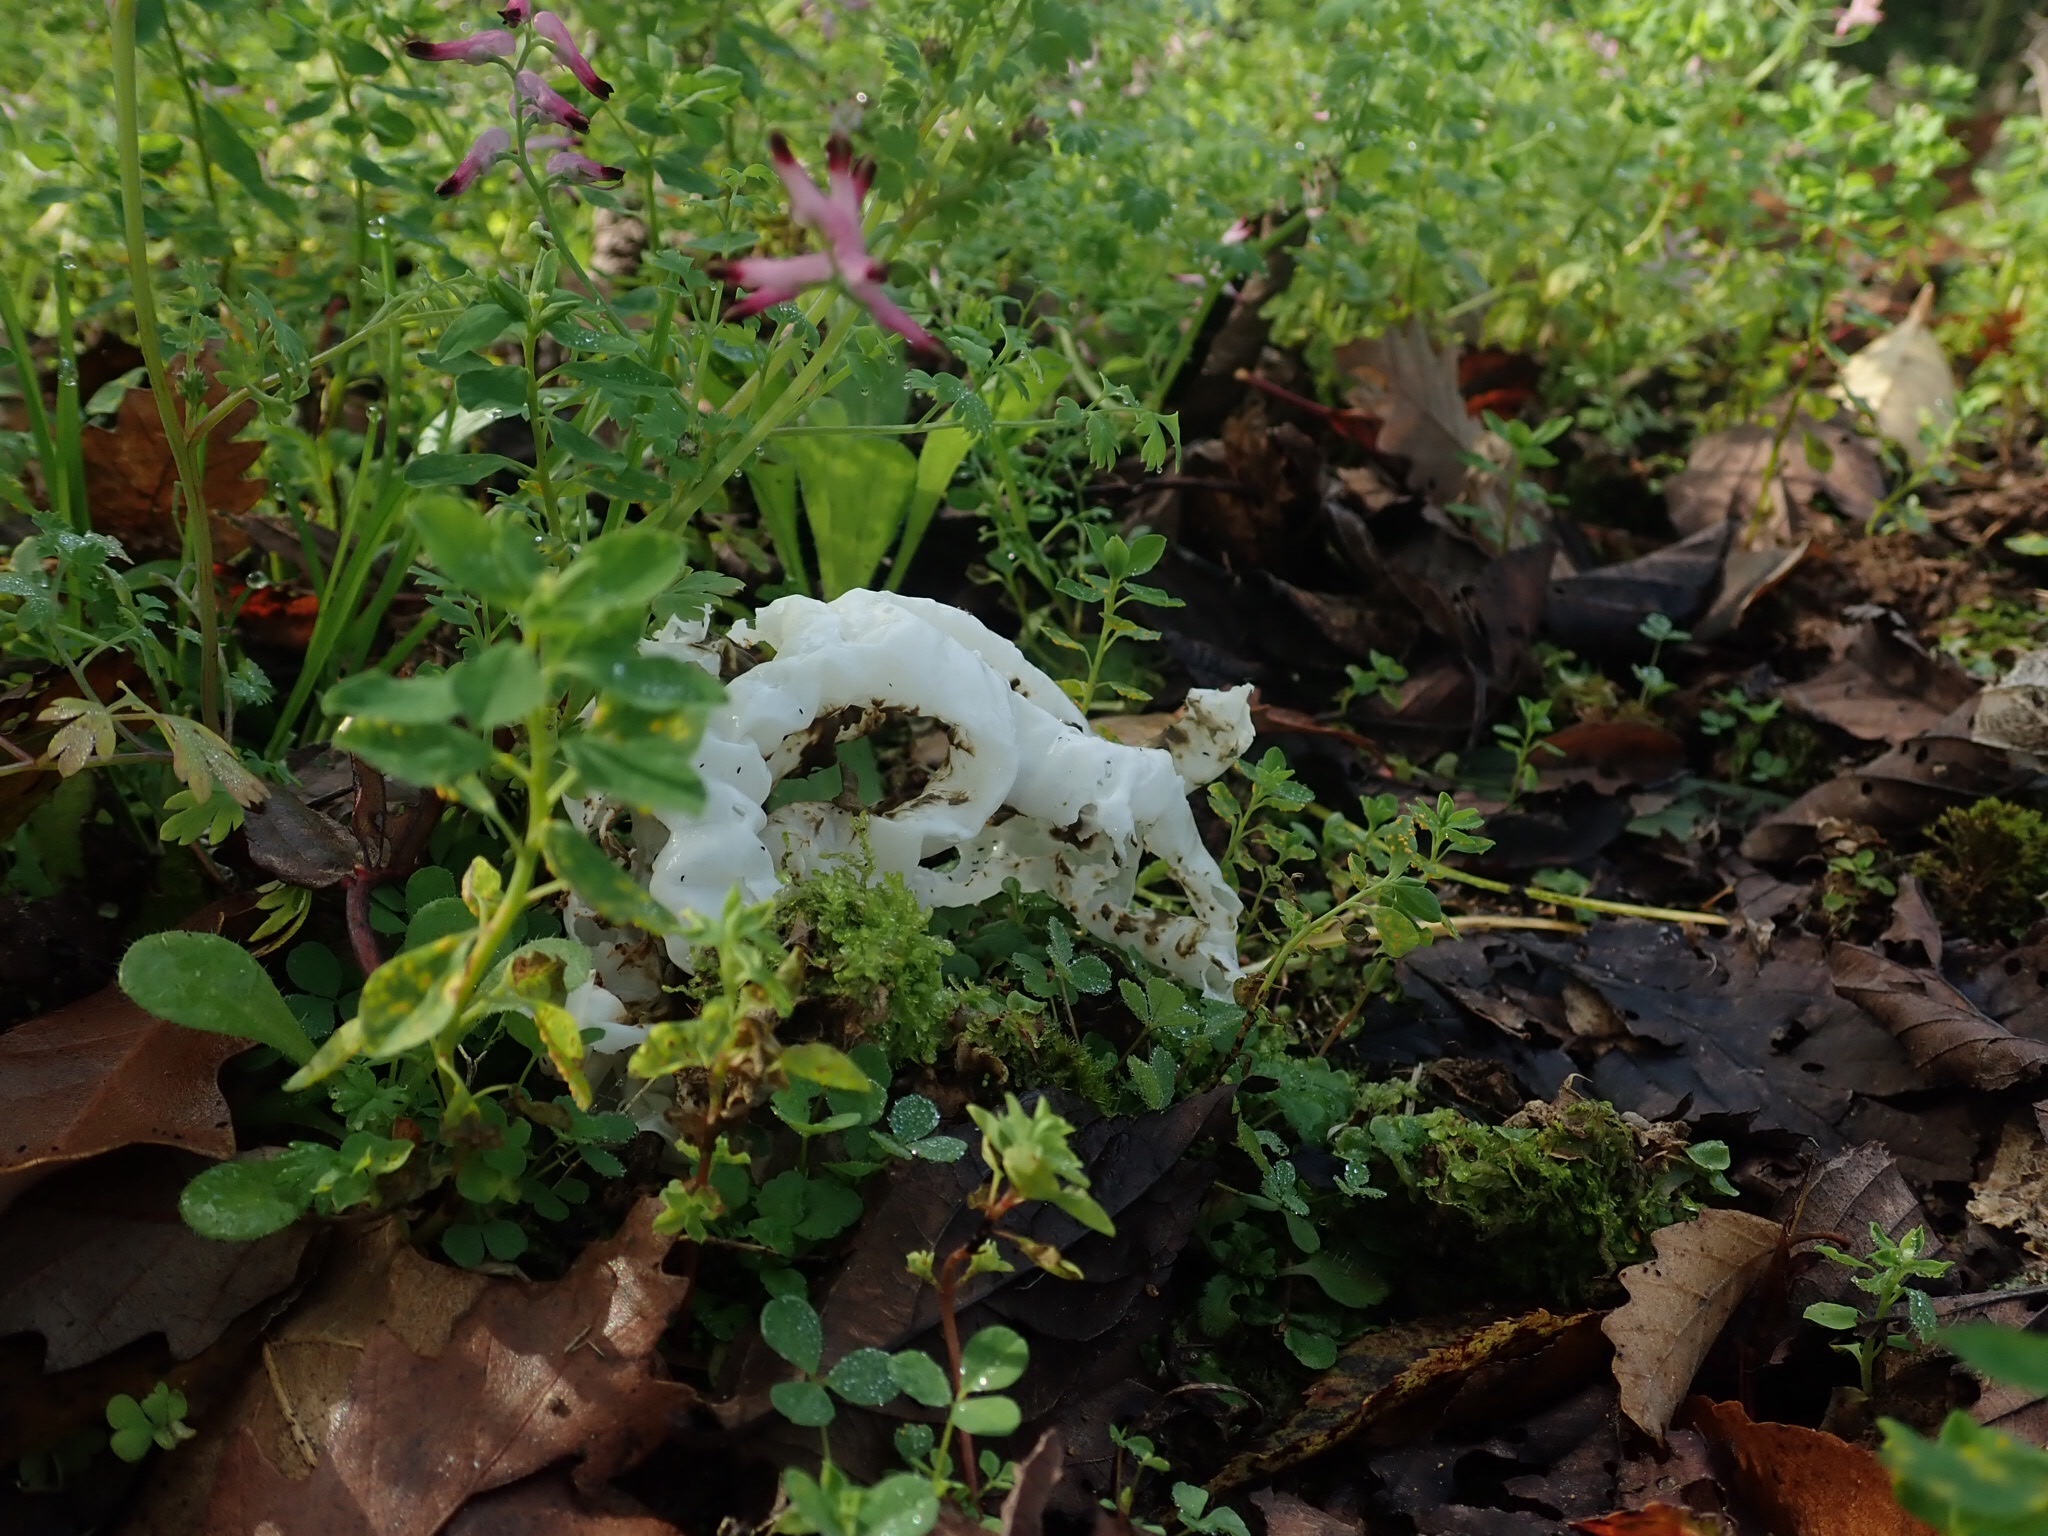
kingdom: Fungi
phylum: Basidiomycota
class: Agaricomycetes
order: Phallales
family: Phallaceae
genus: Ileodictyon
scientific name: Ileodictyon cibarium
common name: Basket fungus
